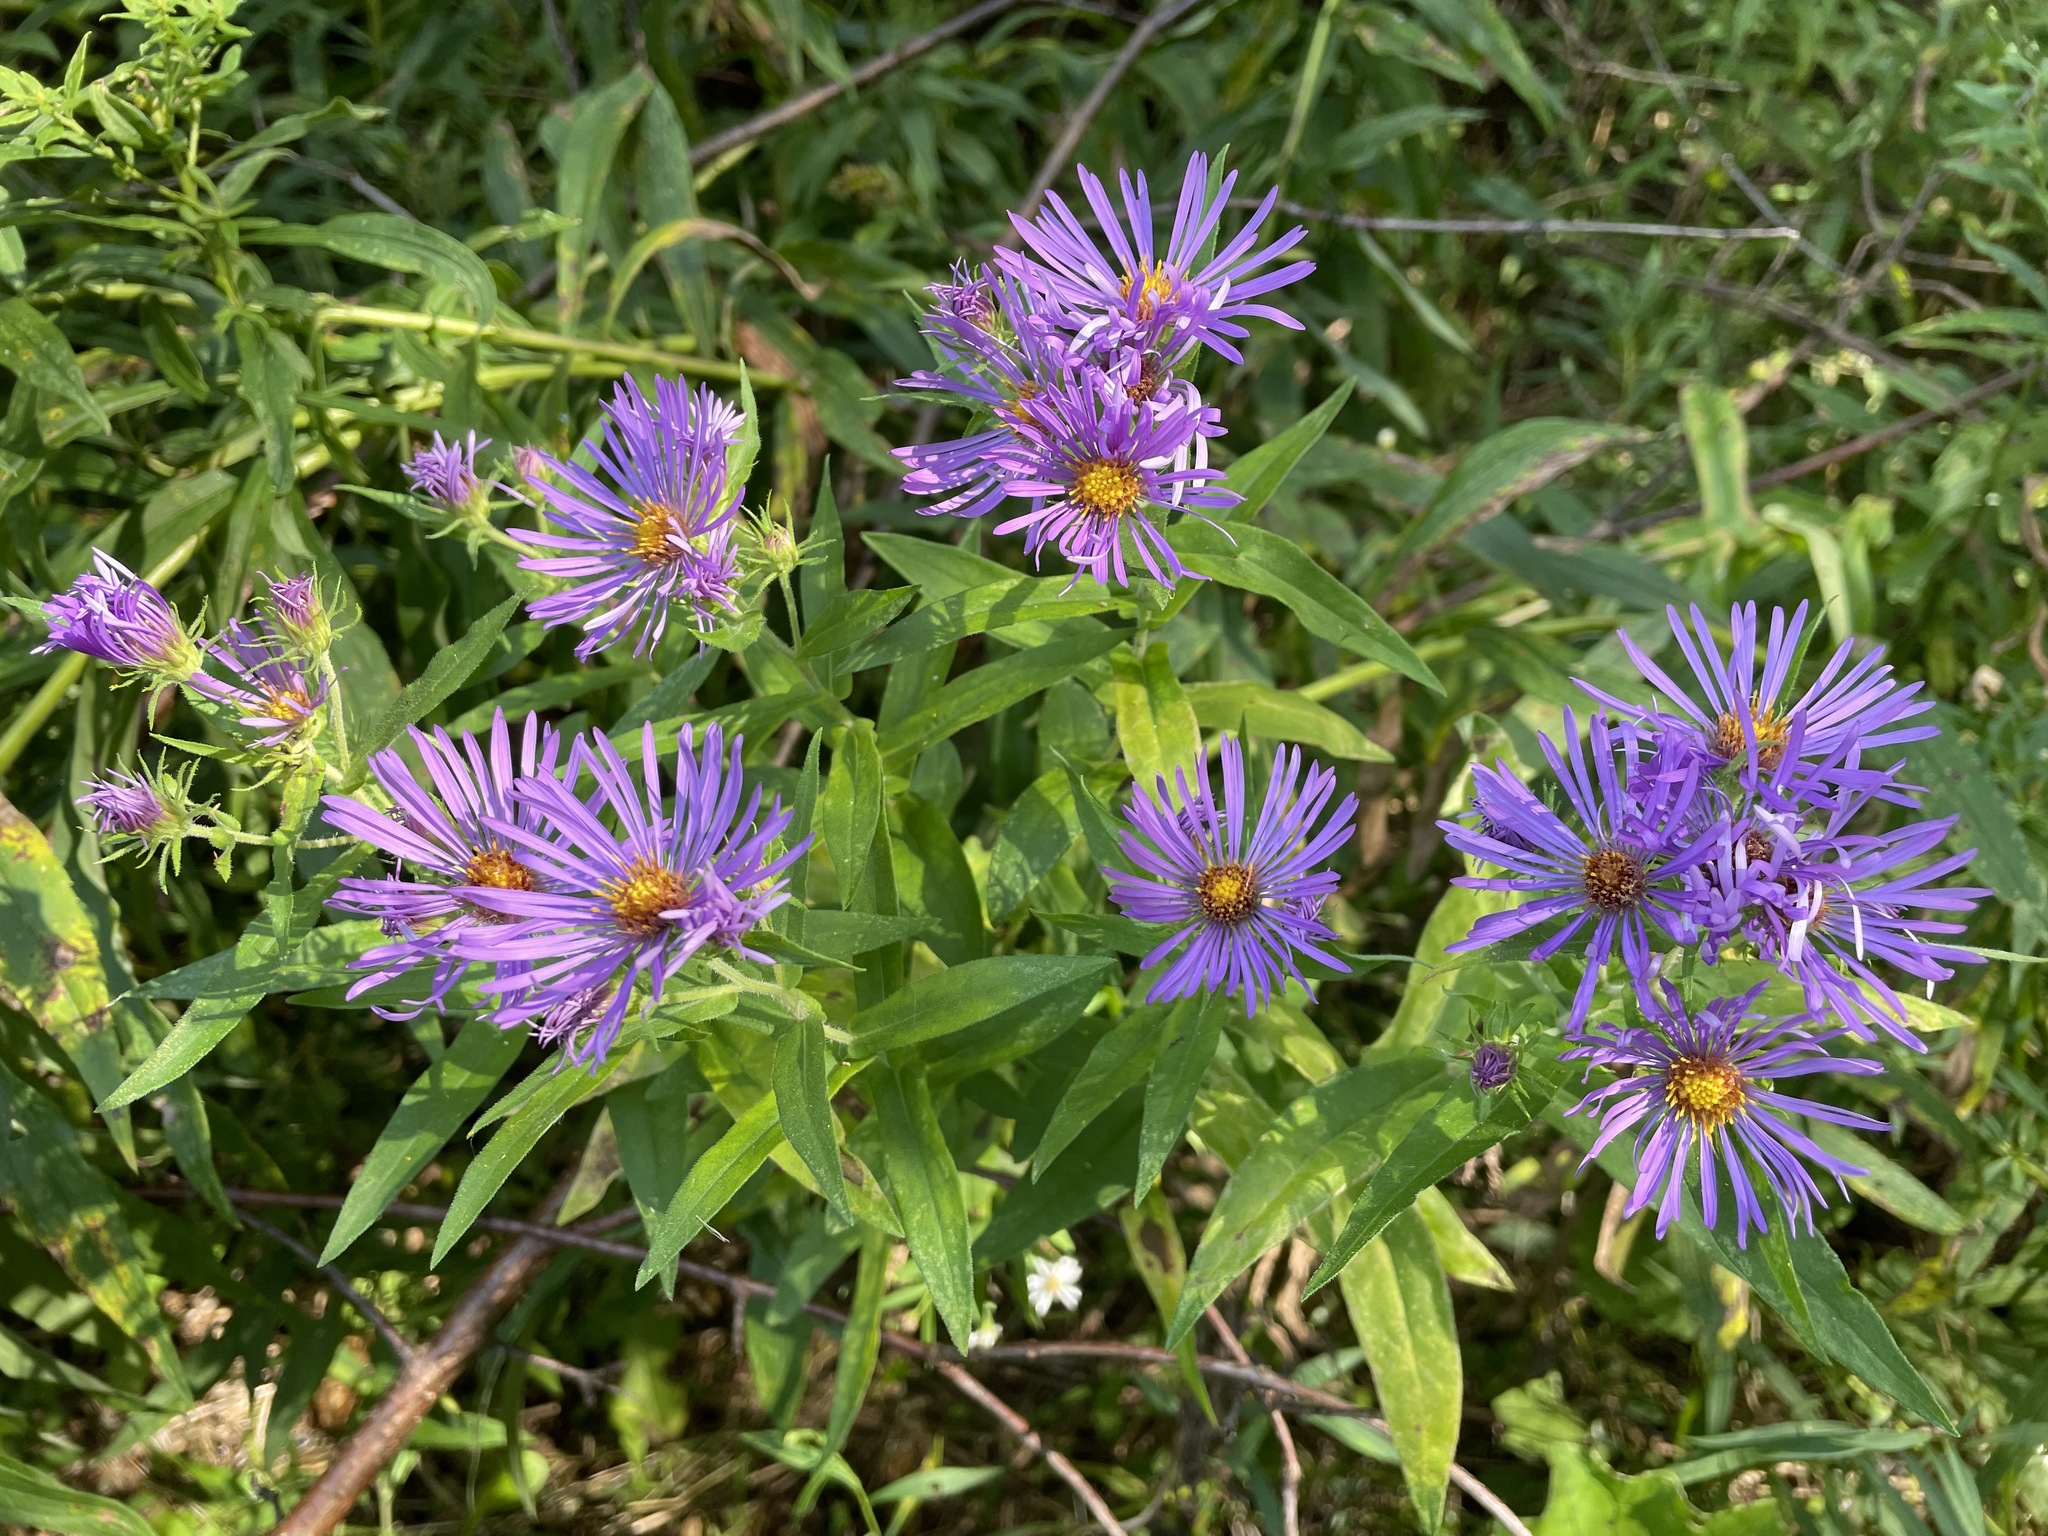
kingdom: Plantae
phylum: Tracheophyta
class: Magnoliopsida
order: Asterales
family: Asteraceae
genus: Symphyotrichum
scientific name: Symphyotrichum novae-angliae
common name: Michaelmas daisy
